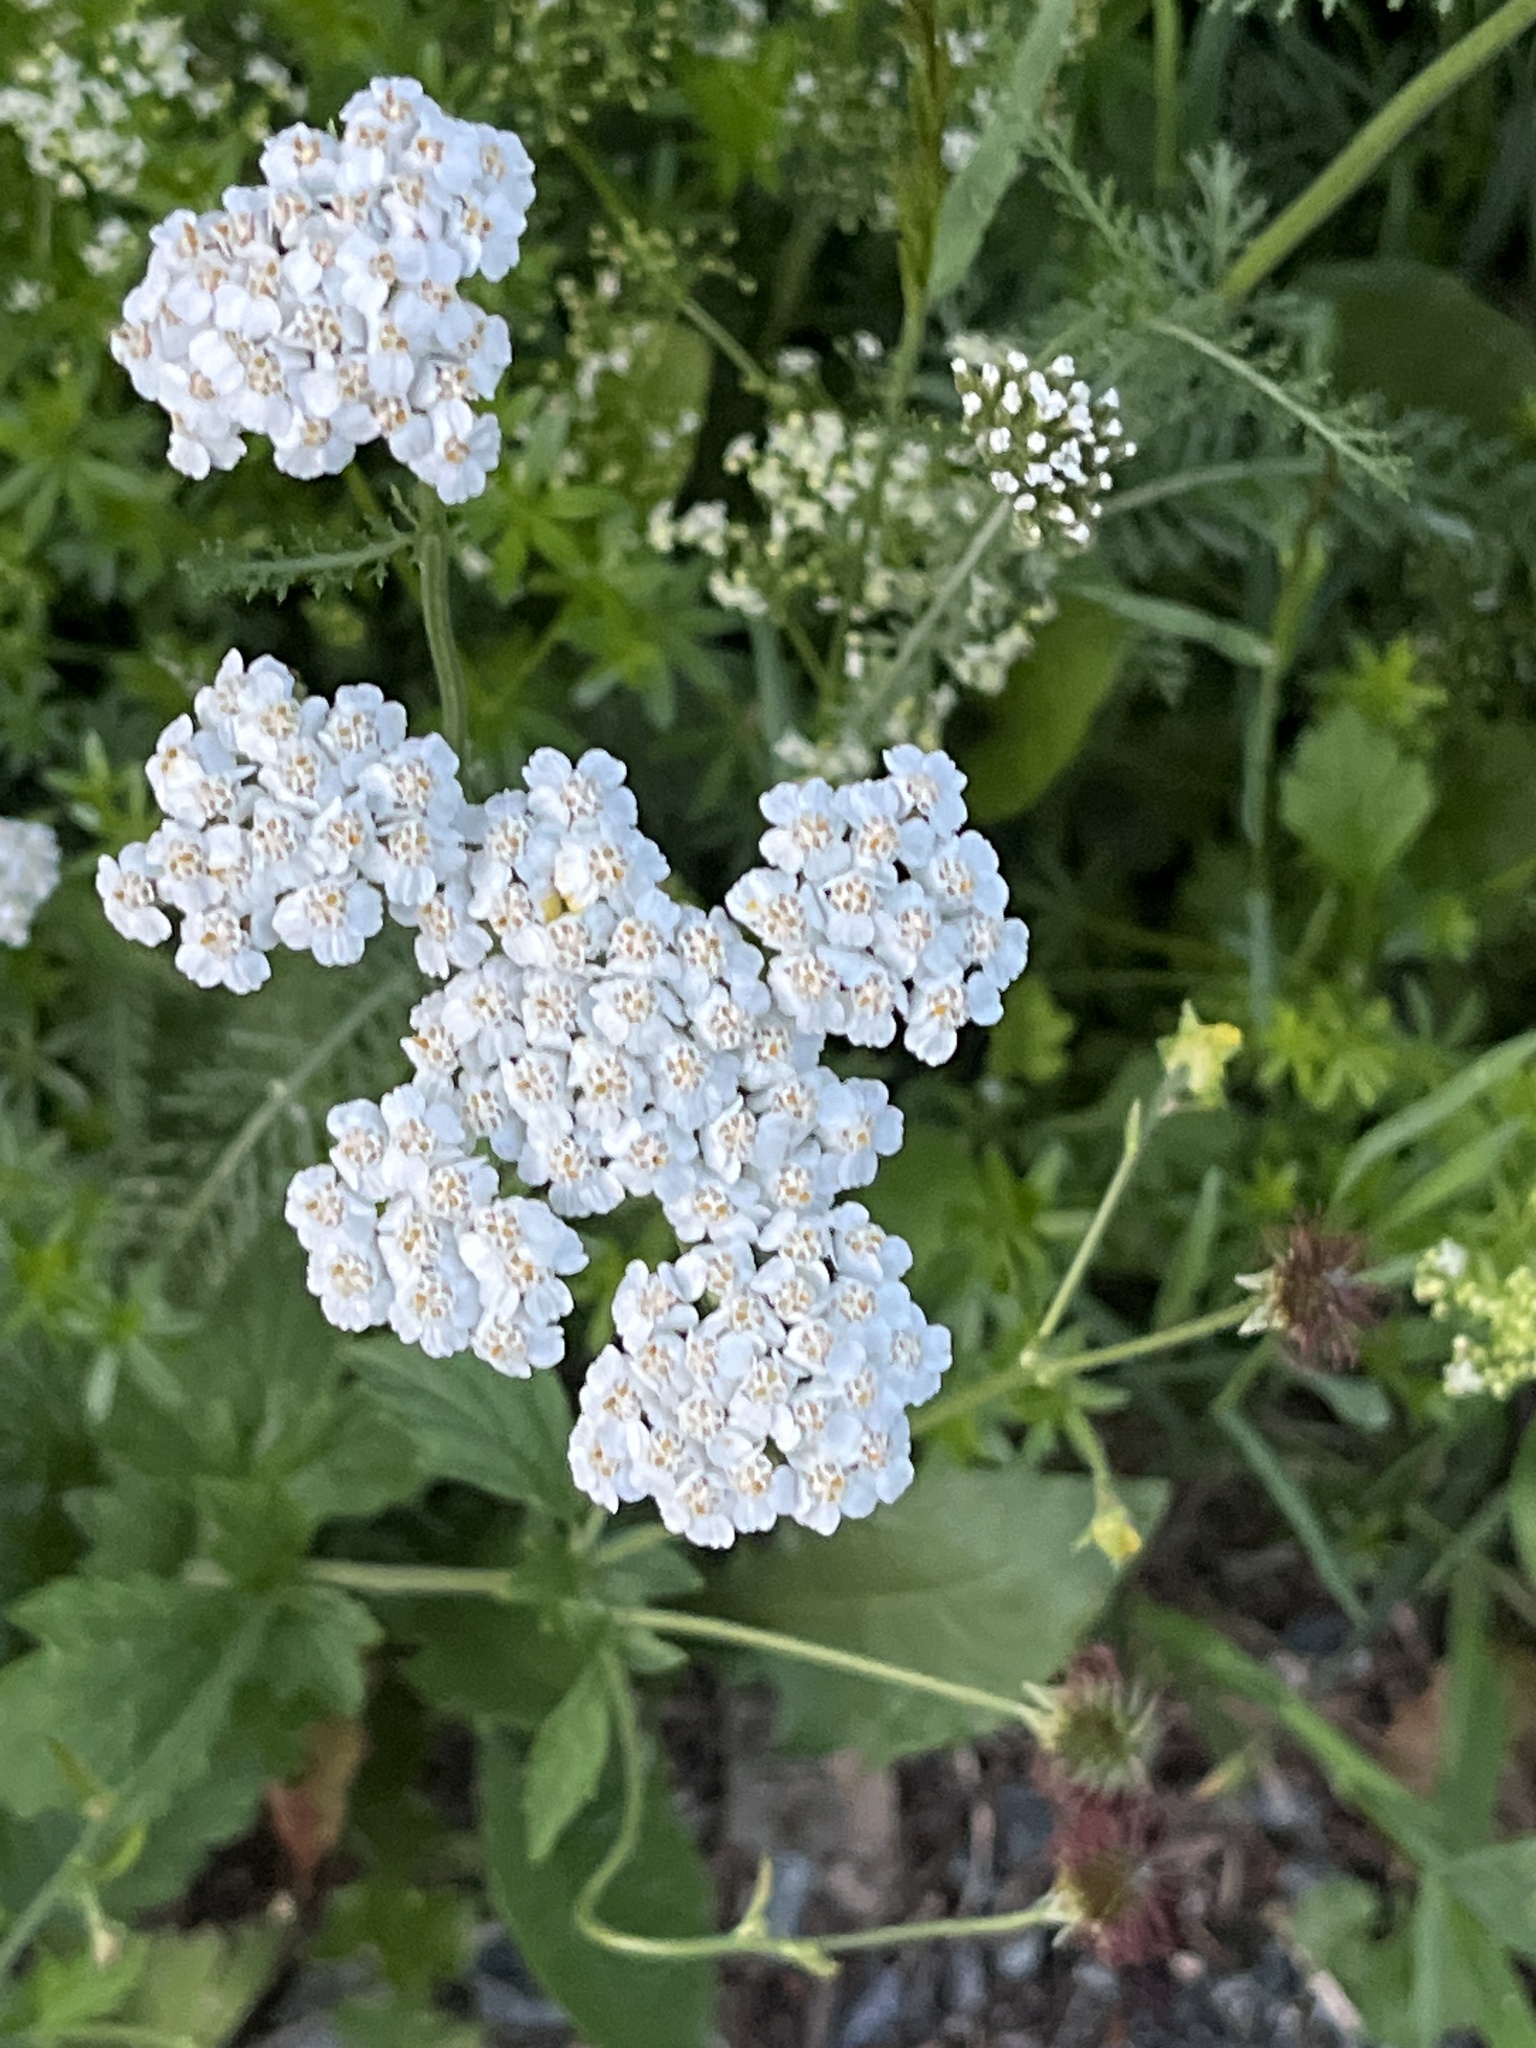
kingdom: Plantae
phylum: Tracheophyta
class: Magnoliopsida
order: Asterales
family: Asteraceae
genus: Achillea
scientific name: Achillea millefolium
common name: Yarrow
